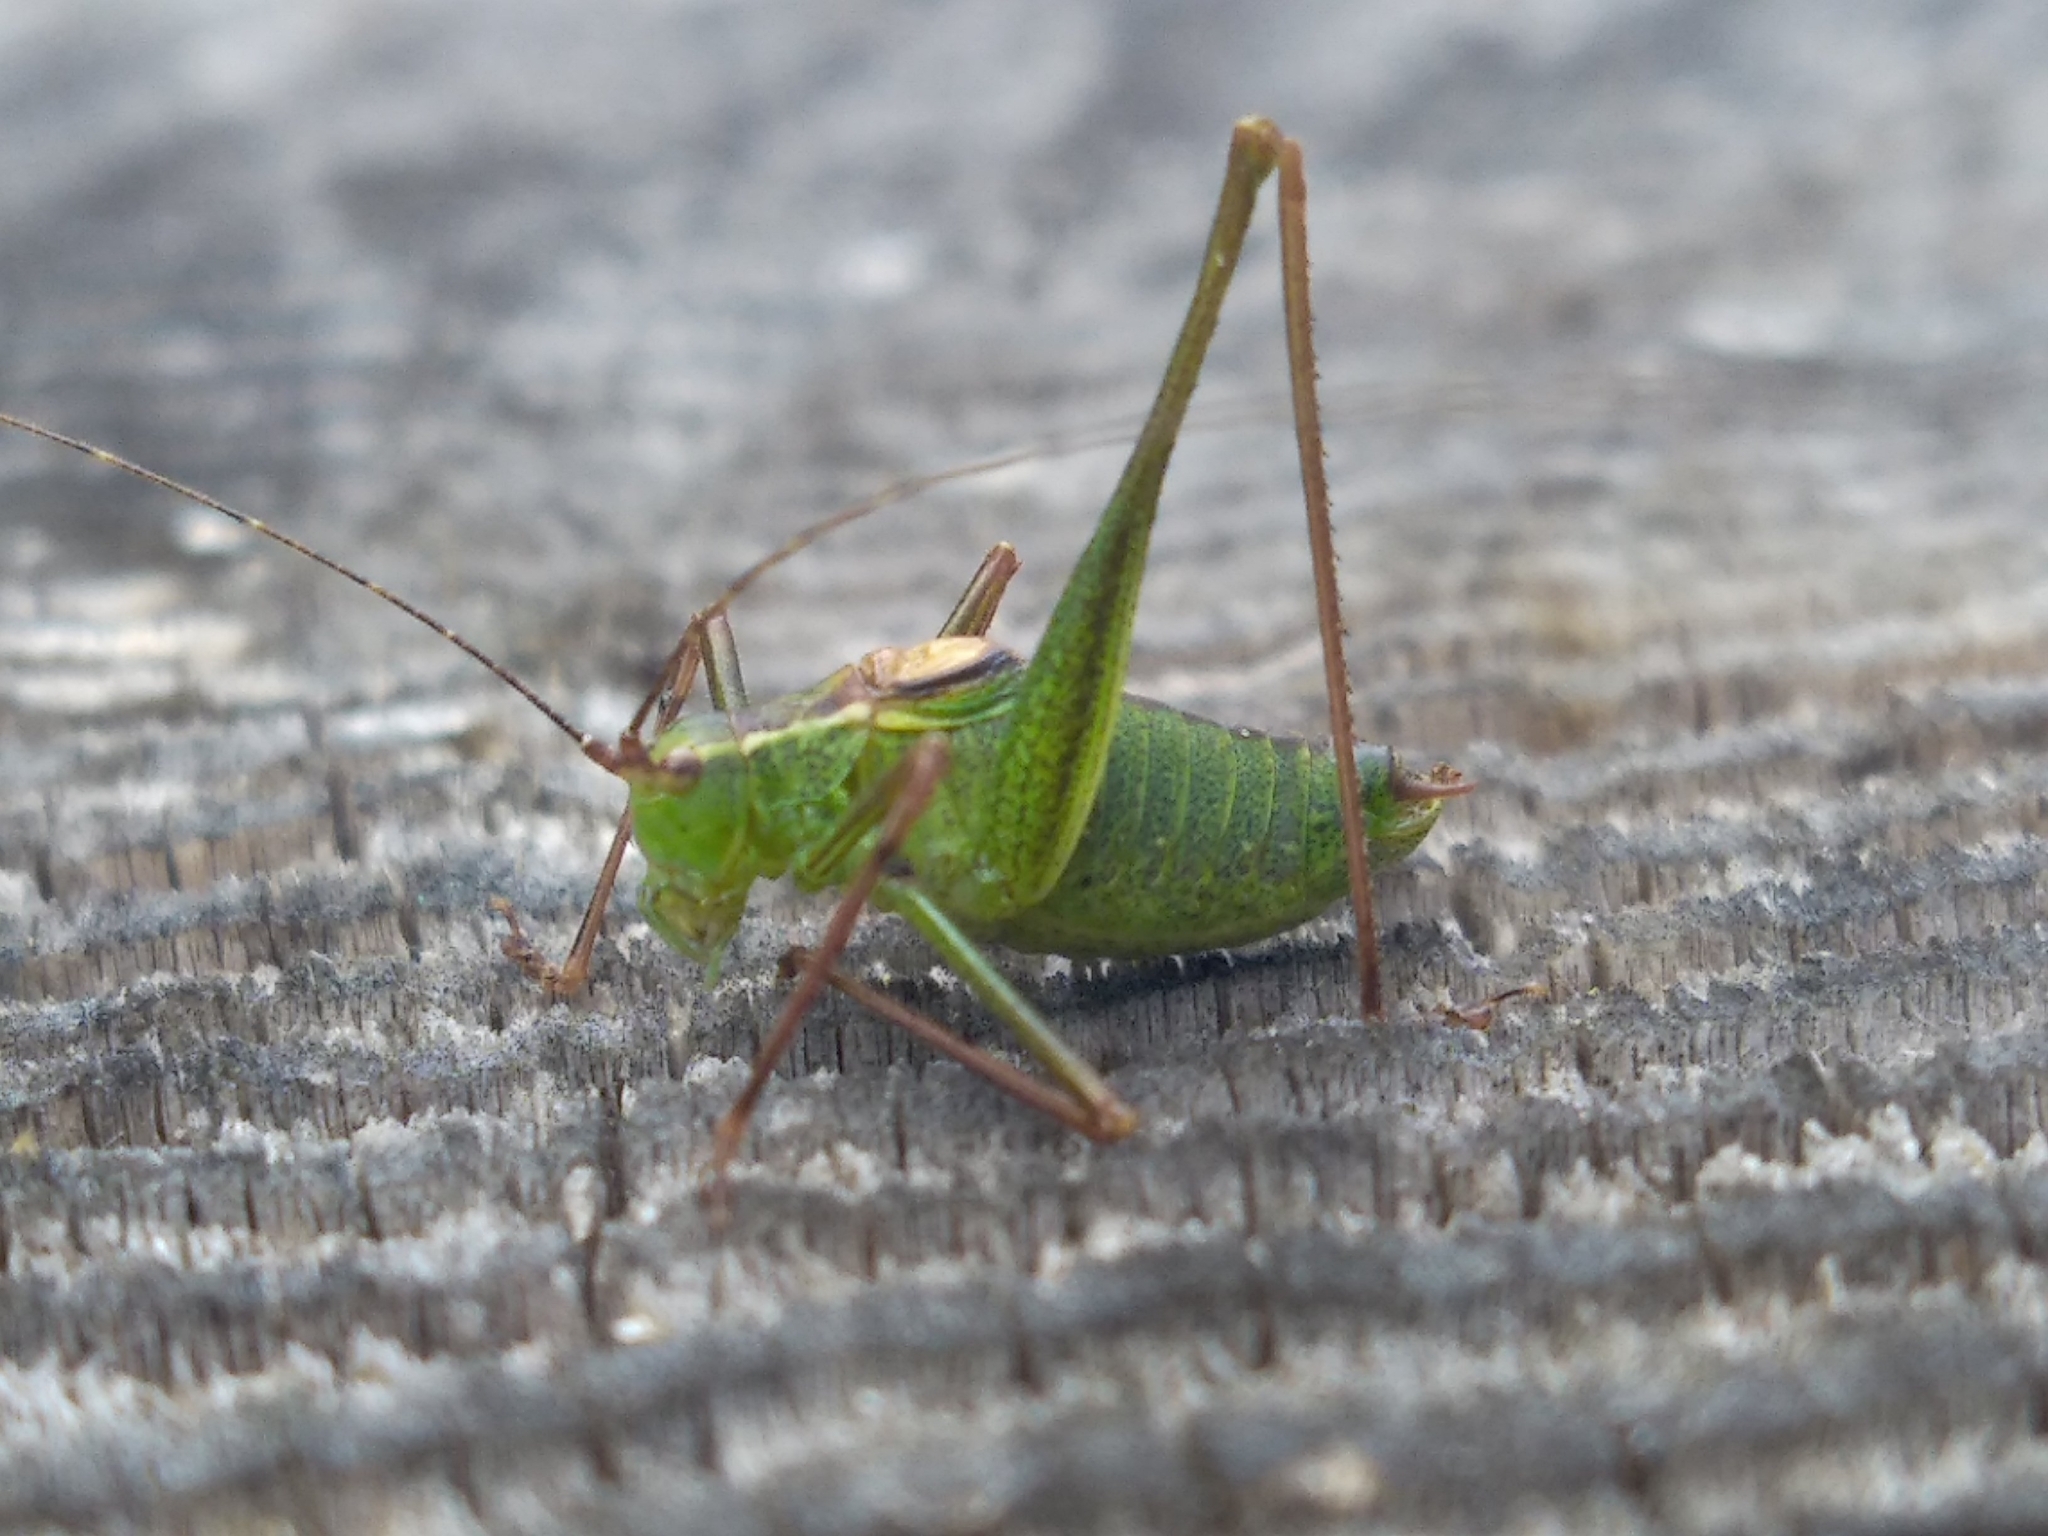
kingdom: Animalia
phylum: Arthropoda
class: Insecta
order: Orthoptera
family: Tettigoniidae
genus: Leptophyes
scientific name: Leptophyes punctatissima
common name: Speckled bush-cricket
